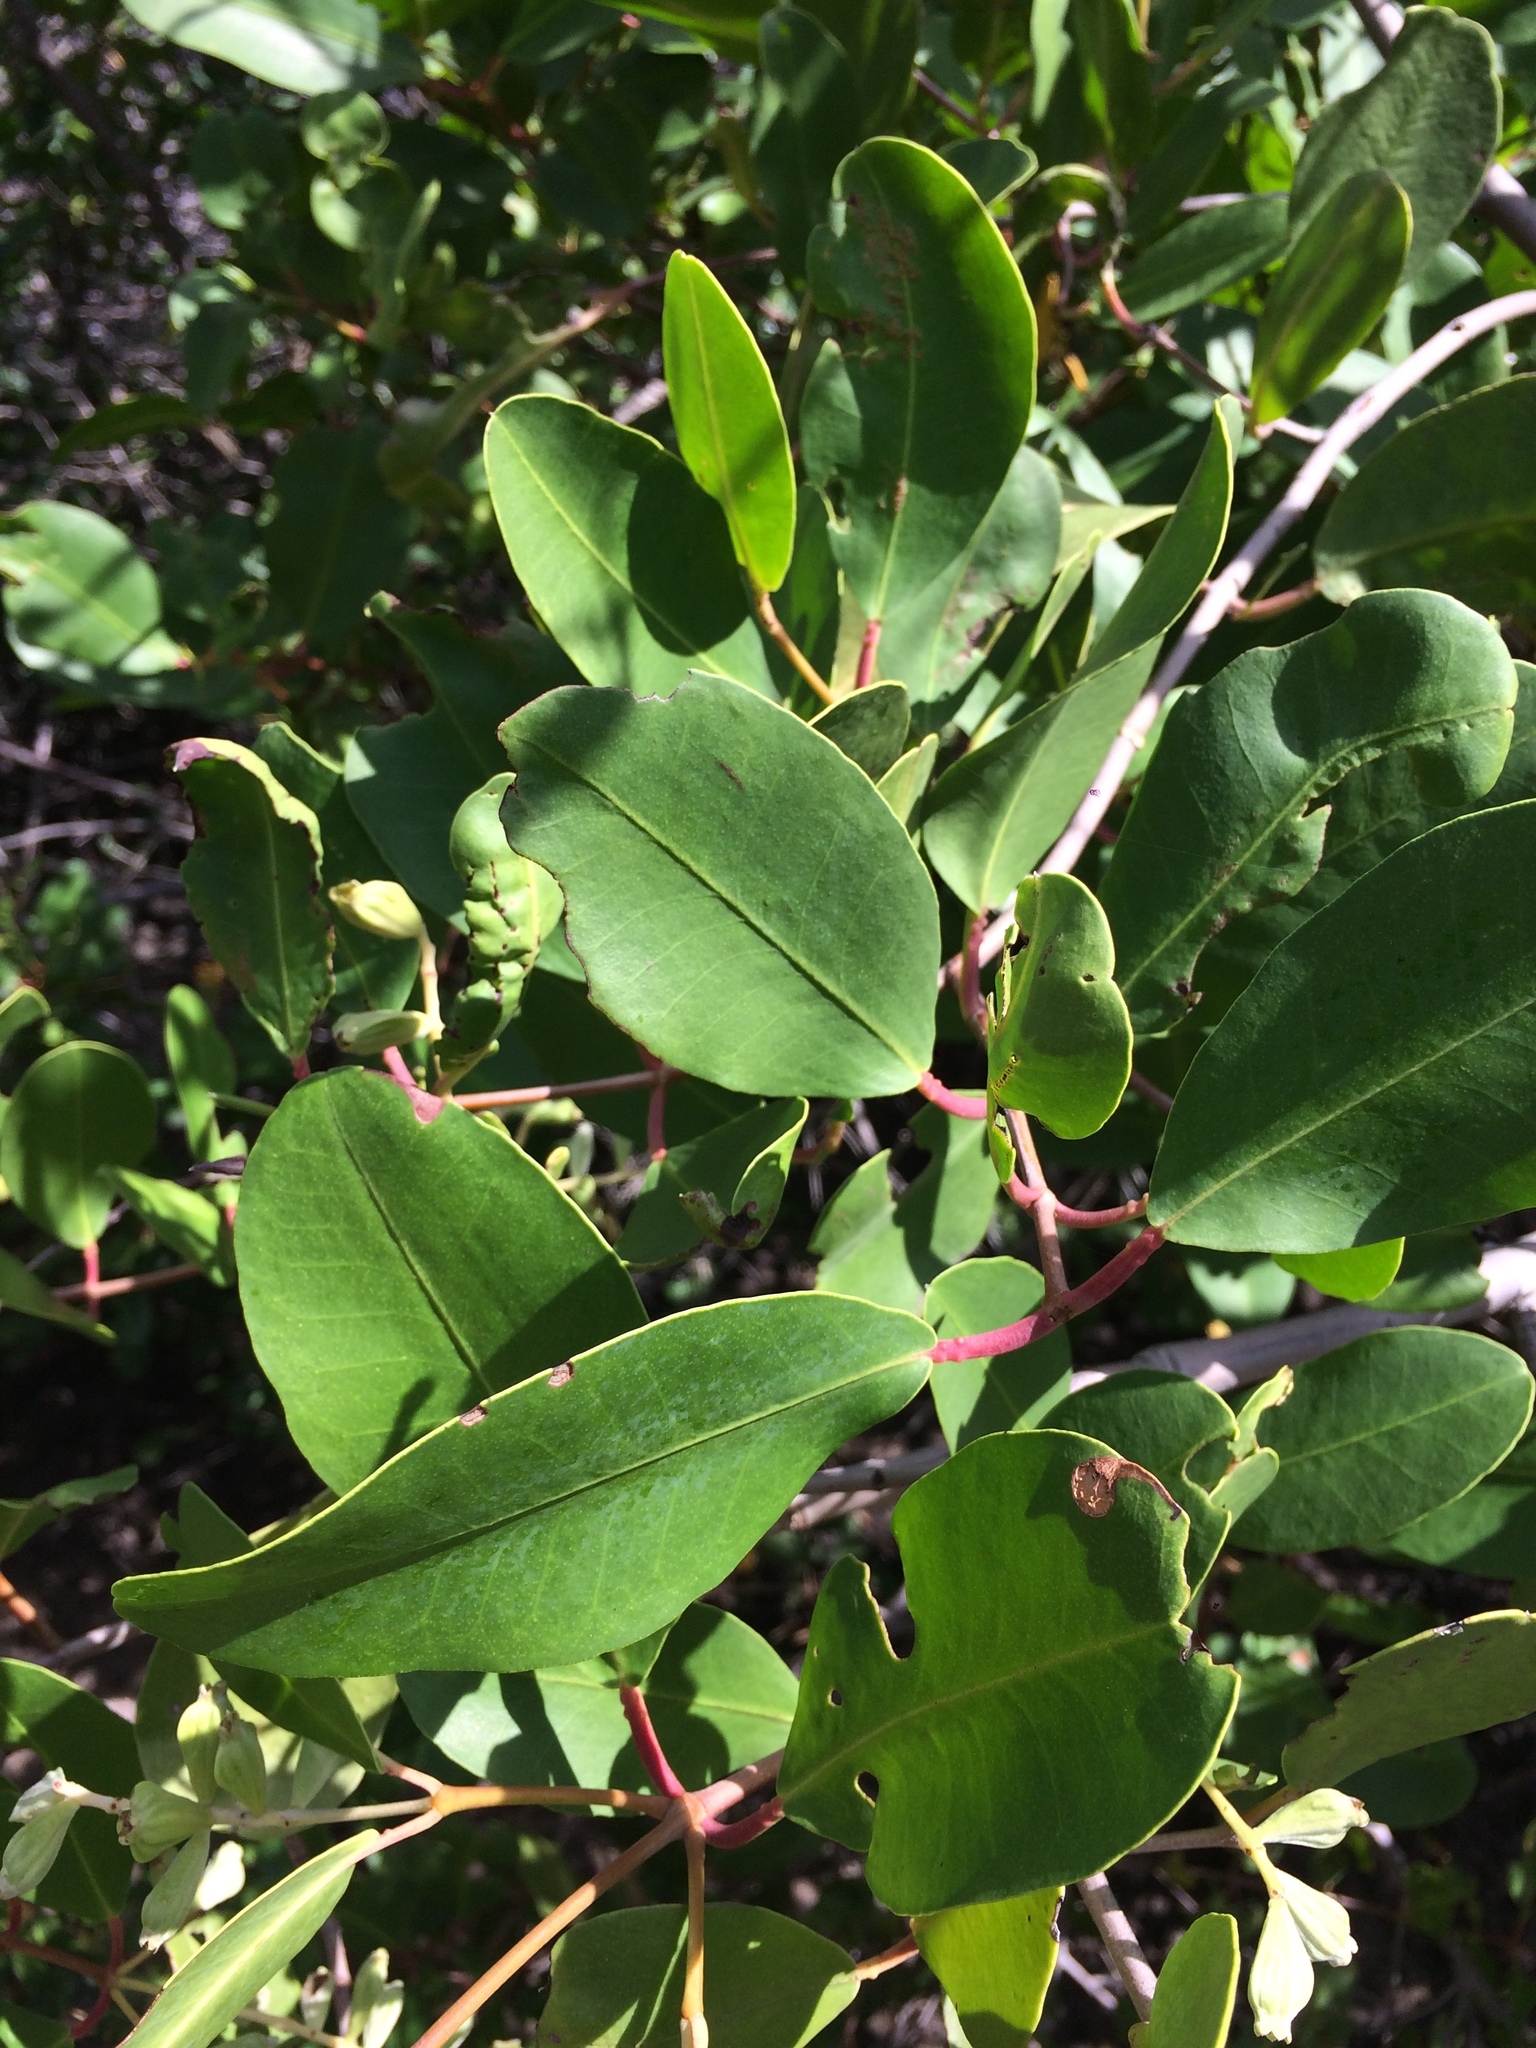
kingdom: Plantae
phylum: Tracheophyta
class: Magnoliopsida
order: Myrtales
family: Combretaceae
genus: Laguncularia
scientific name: Laguncularia racemosa
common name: White mangrove
